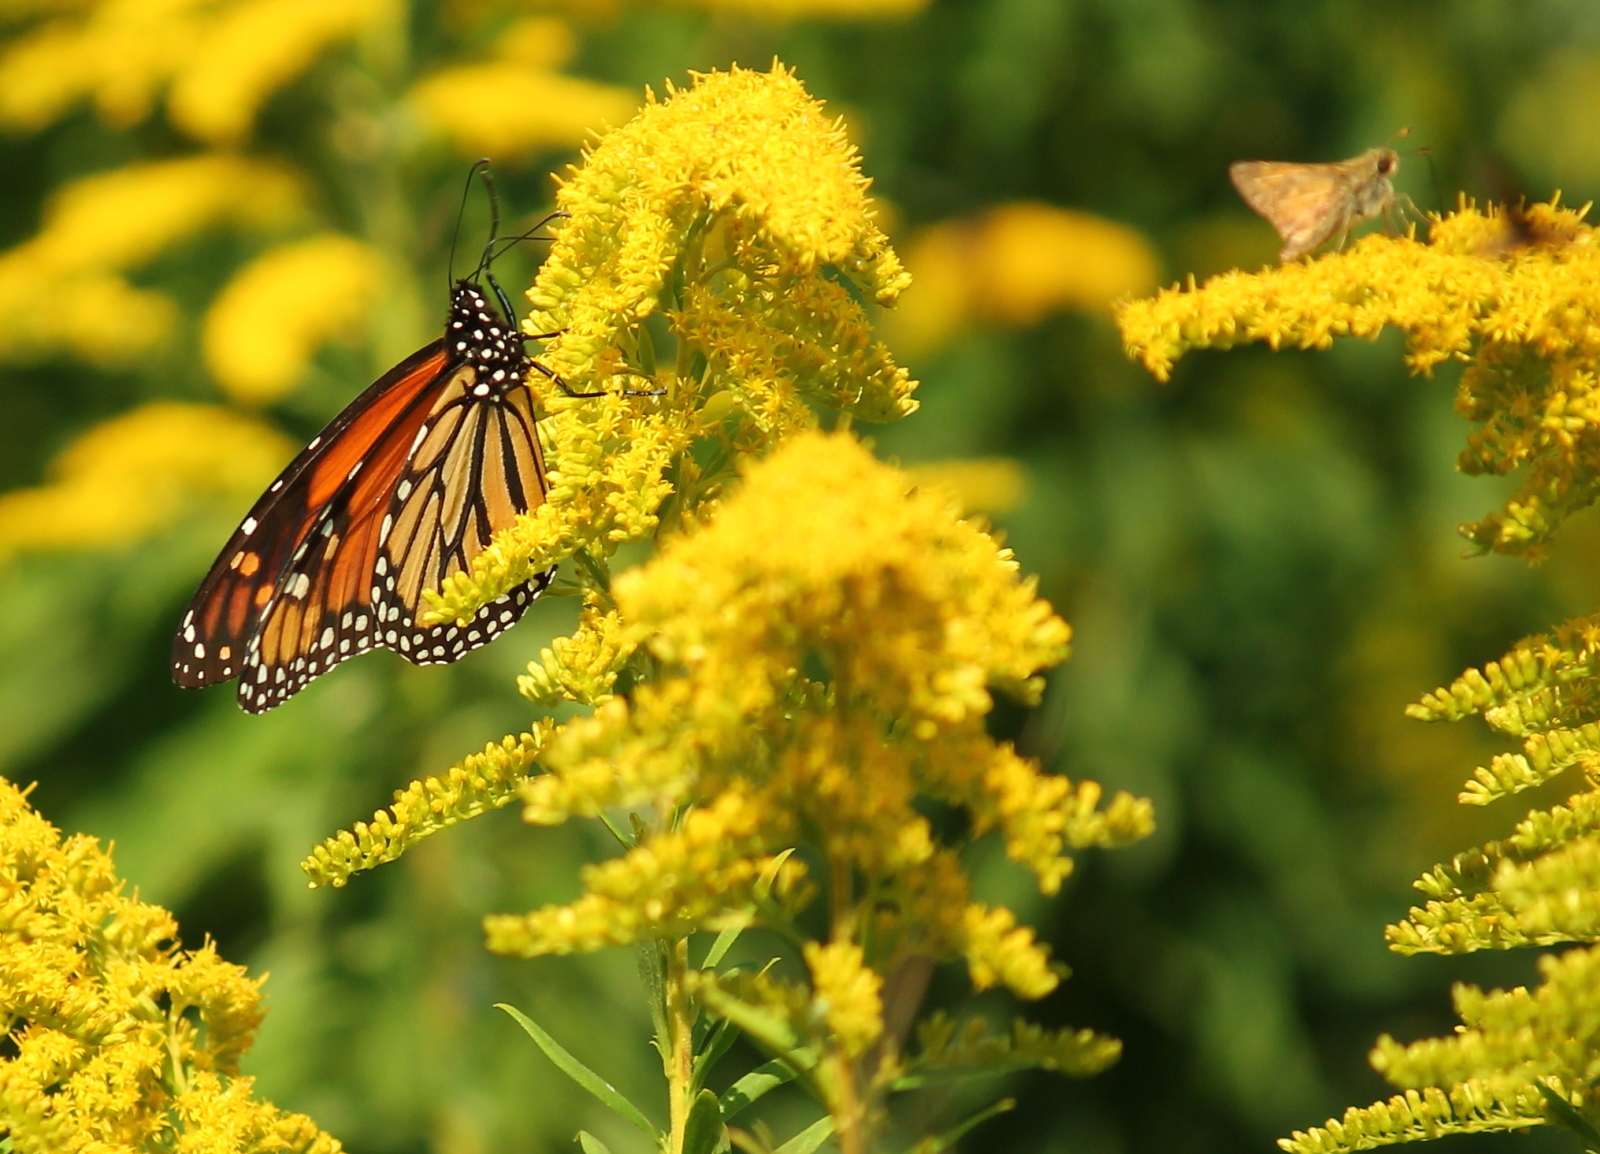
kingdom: Animalia
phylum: Arthropoda
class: Insecta
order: Lepidoptera
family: Nymphalidae
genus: Danaus
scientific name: Danaus plexippus
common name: Monarch
